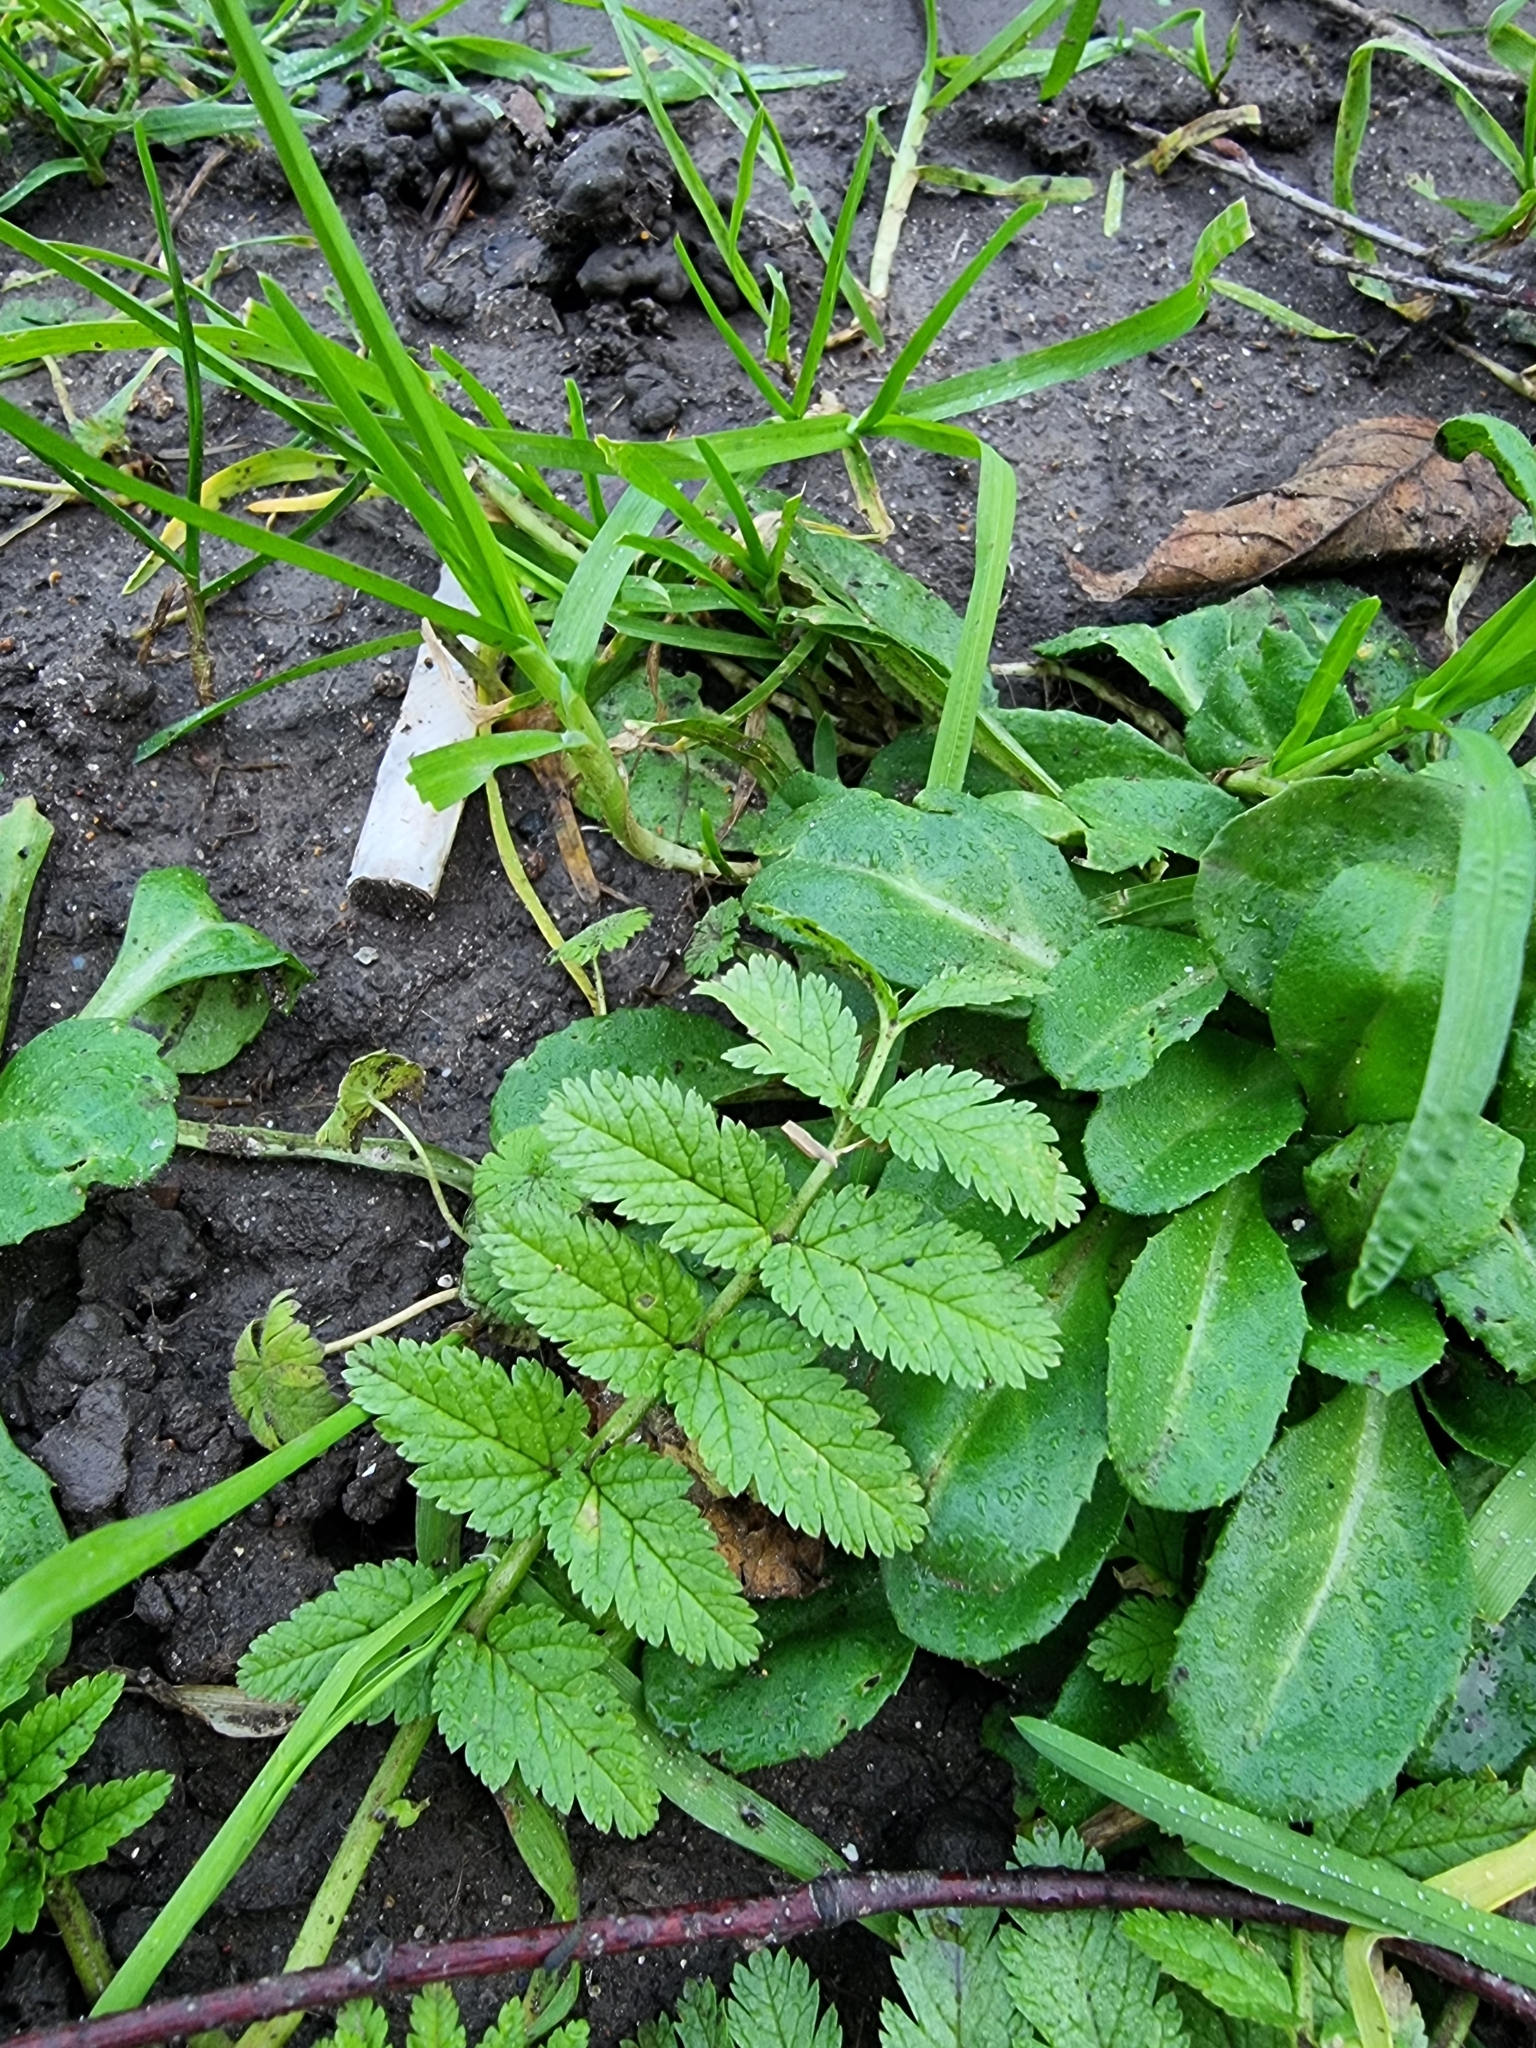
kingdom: Plantae
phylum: Tracheophyta
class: Magnoliopsida
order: Geraniales
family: Geraniaceae
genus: Erodium
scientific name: Erodium moschatum
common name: Musk stork's-bill
